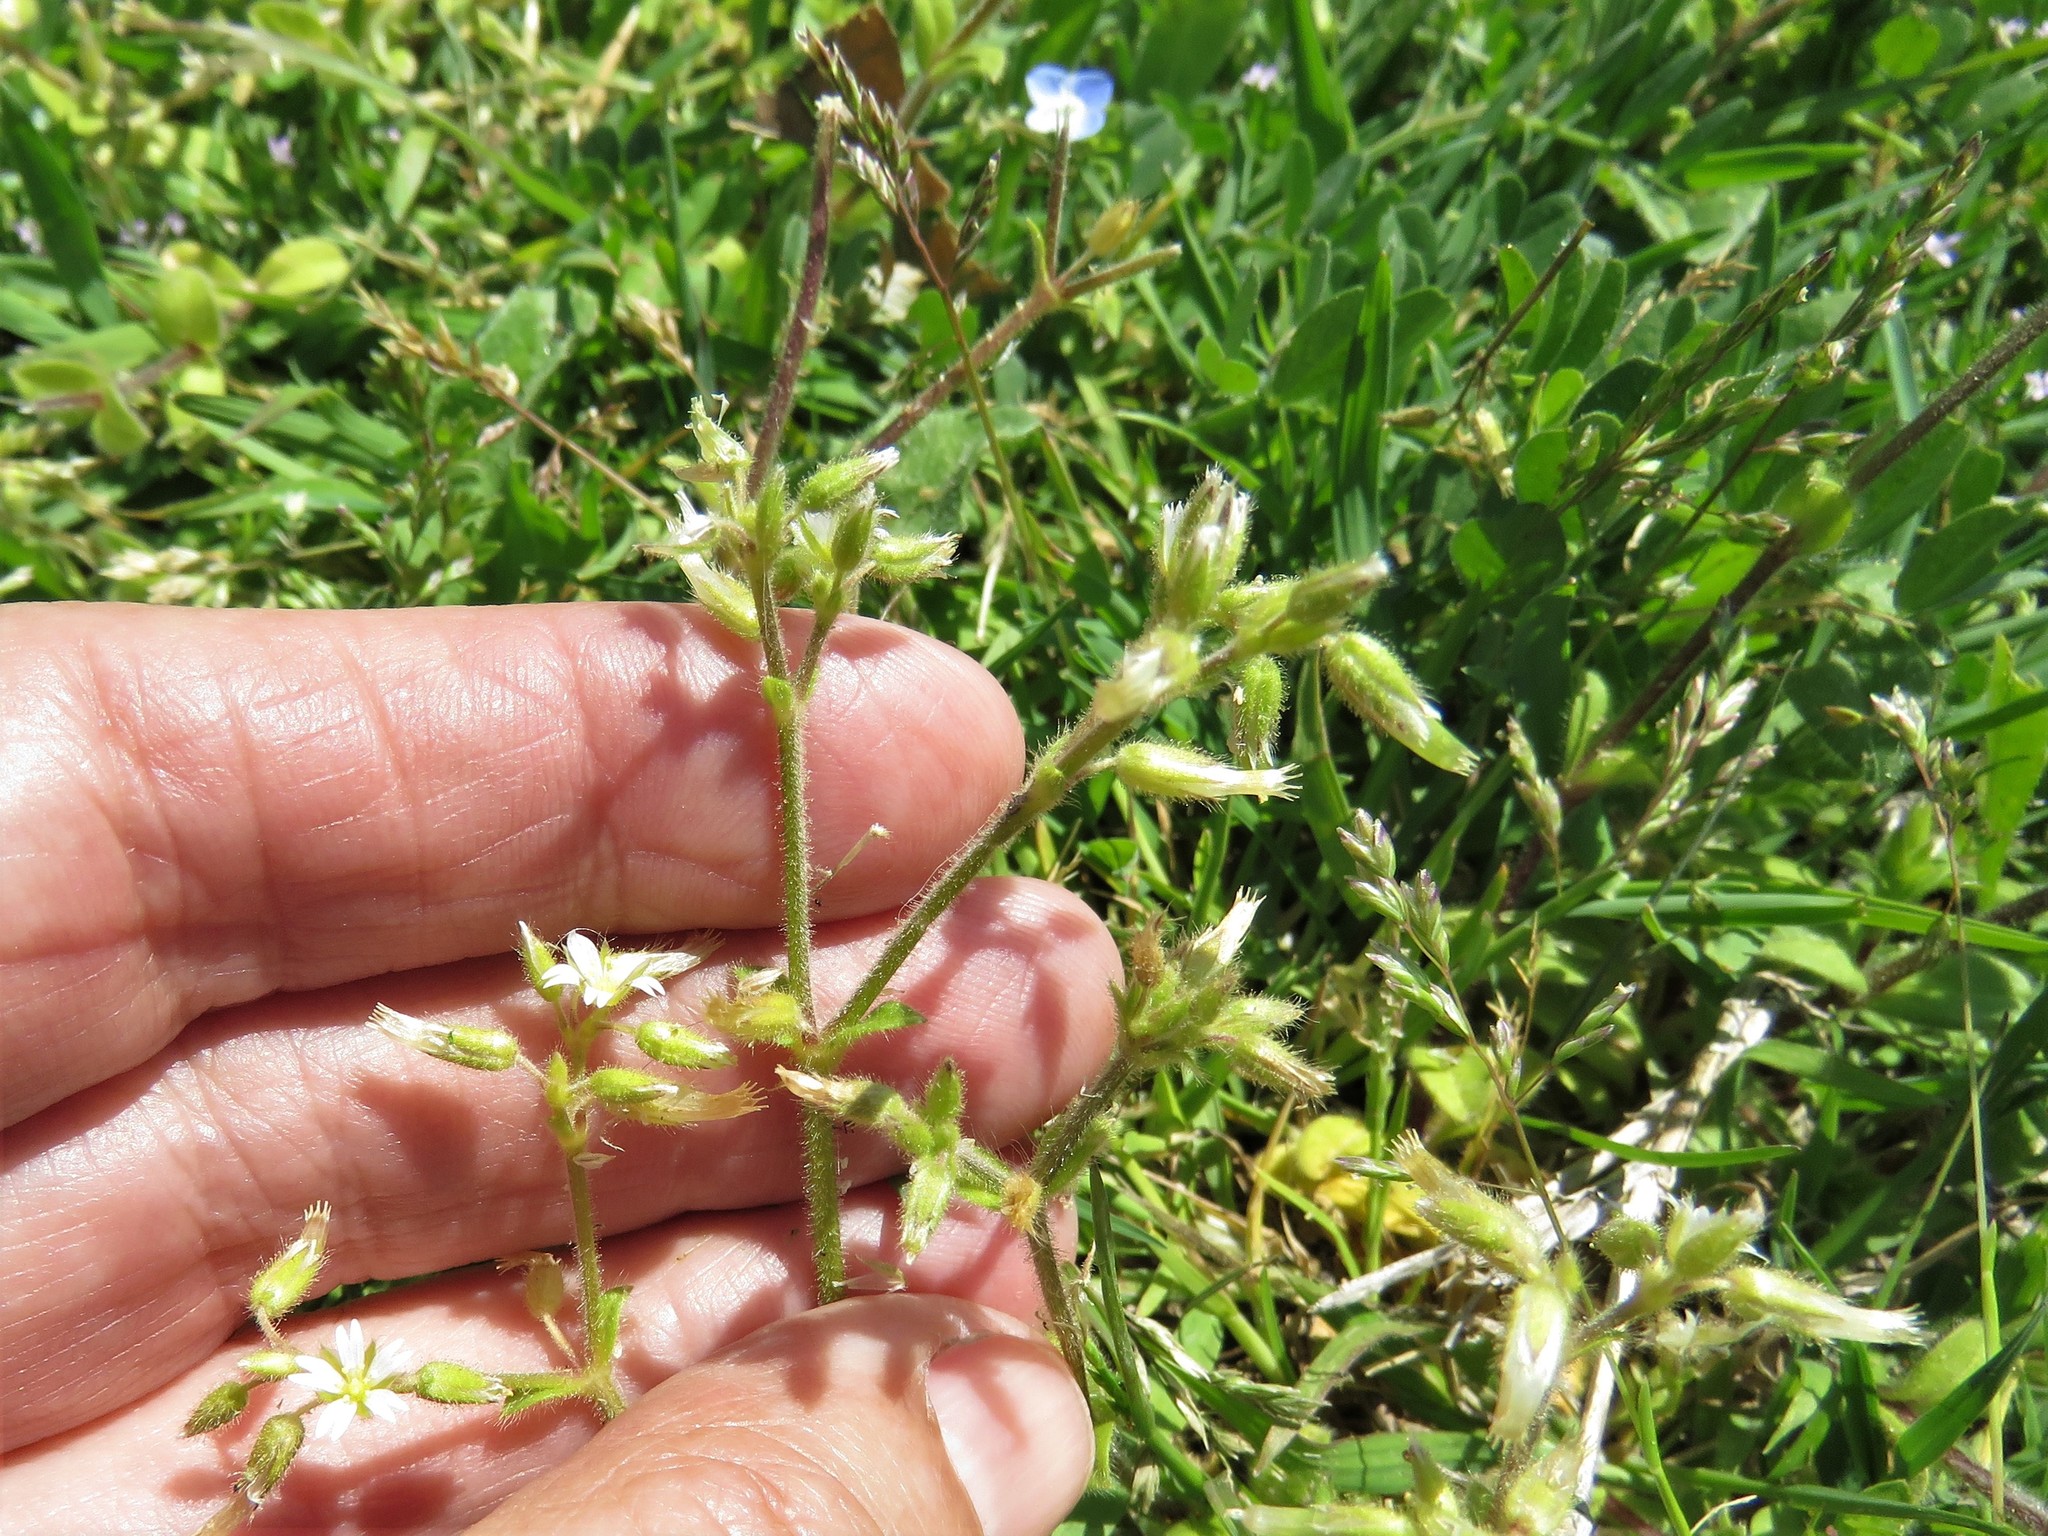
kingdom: Plantae
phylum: Tracheophyta
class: Magnoliopsida
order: Caryophyllales
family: Caryophyllaceae
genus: Cerastium
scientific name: Cerastium glomeratum
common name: Sticky chickweed
